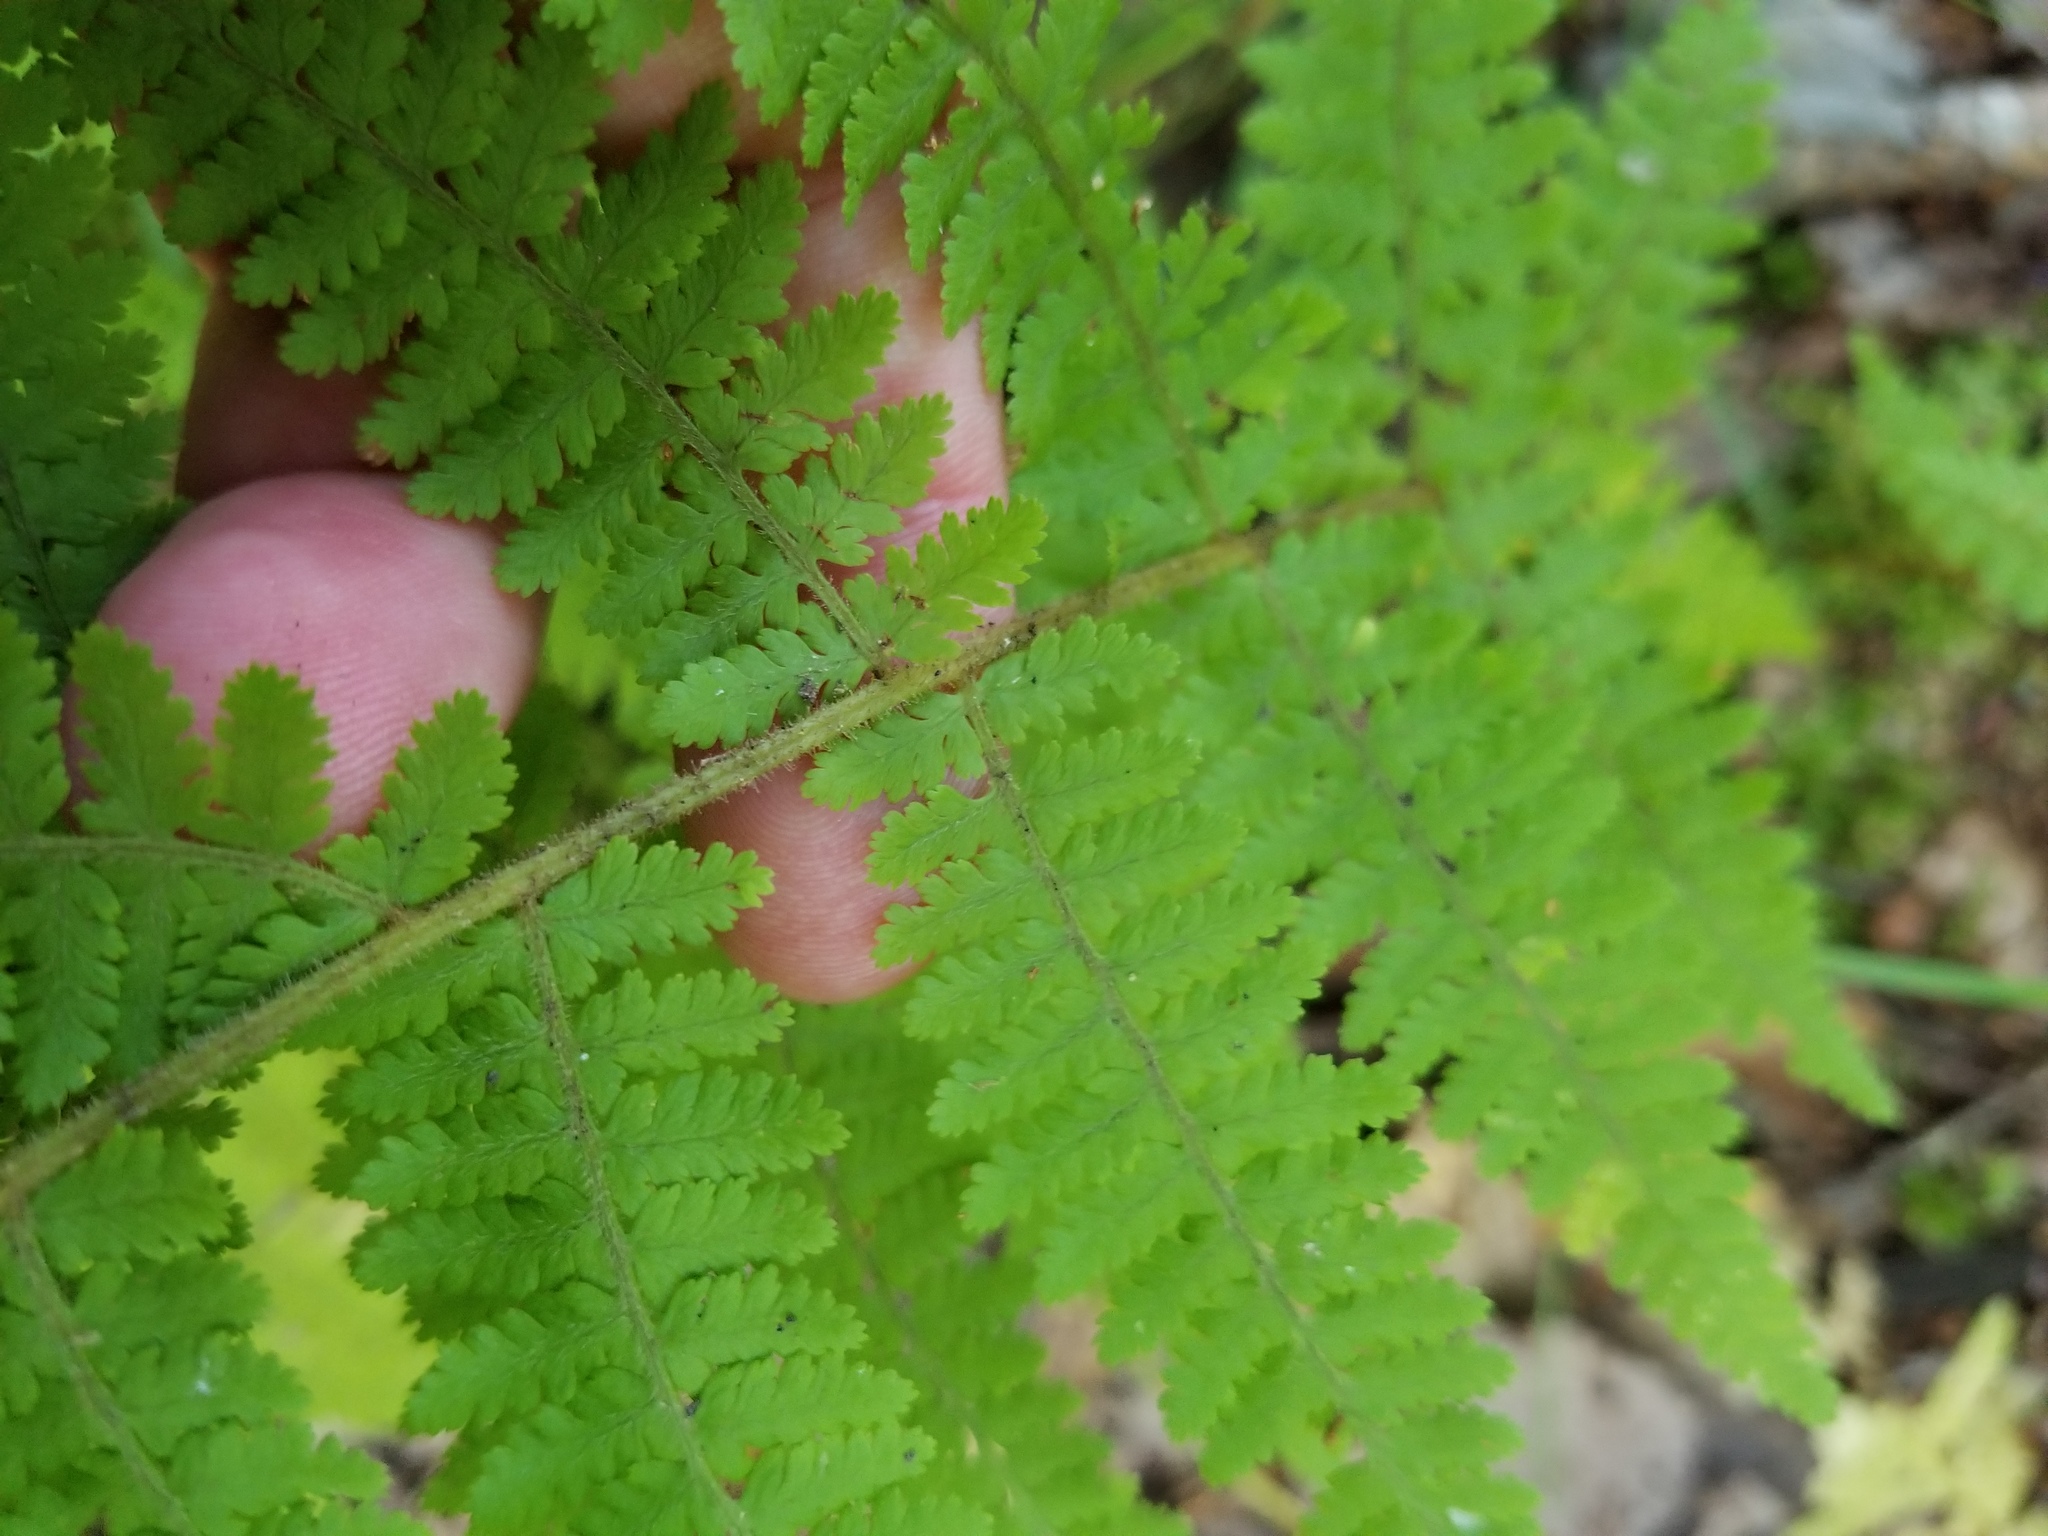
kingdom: Plantae
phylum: Tracheophyta
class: Polypodiopsida
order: Polypodiales
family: Dennstaedtiaceae
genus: Sitobolium
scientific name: Sitobolium punctilobum
